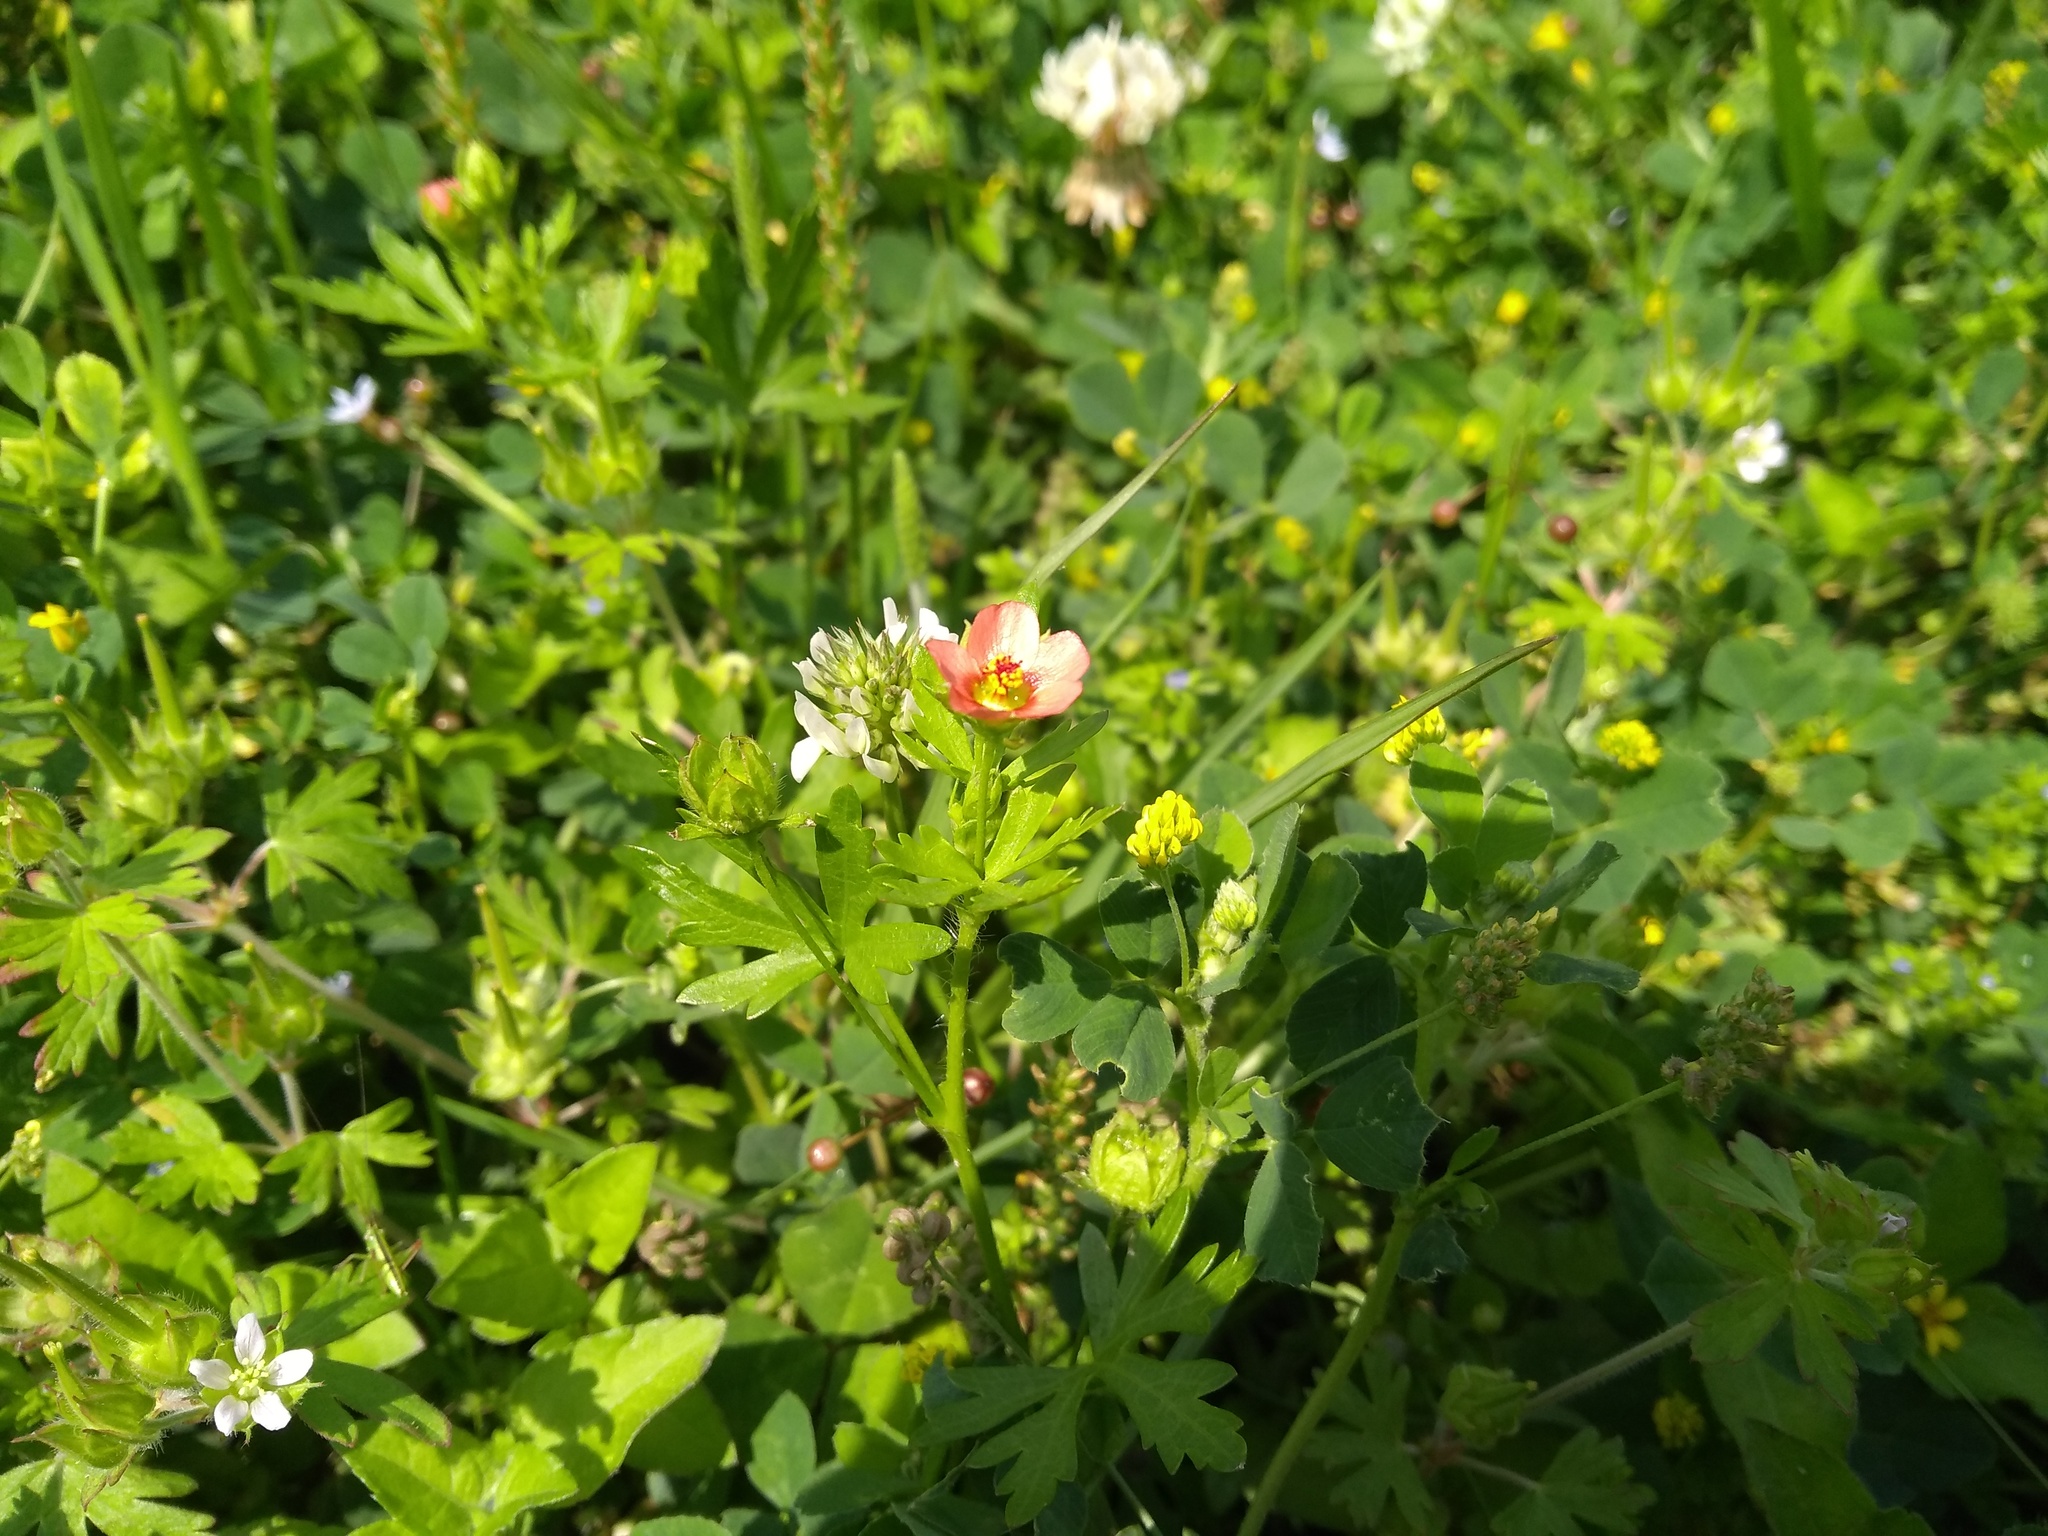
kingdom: Plantae
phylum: Tracheophyta
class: Magnoliopsida
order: Malvales
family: Malvaceae
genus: Modiola
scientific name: Modiola caroliniana
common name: Carolina bristlemallow
